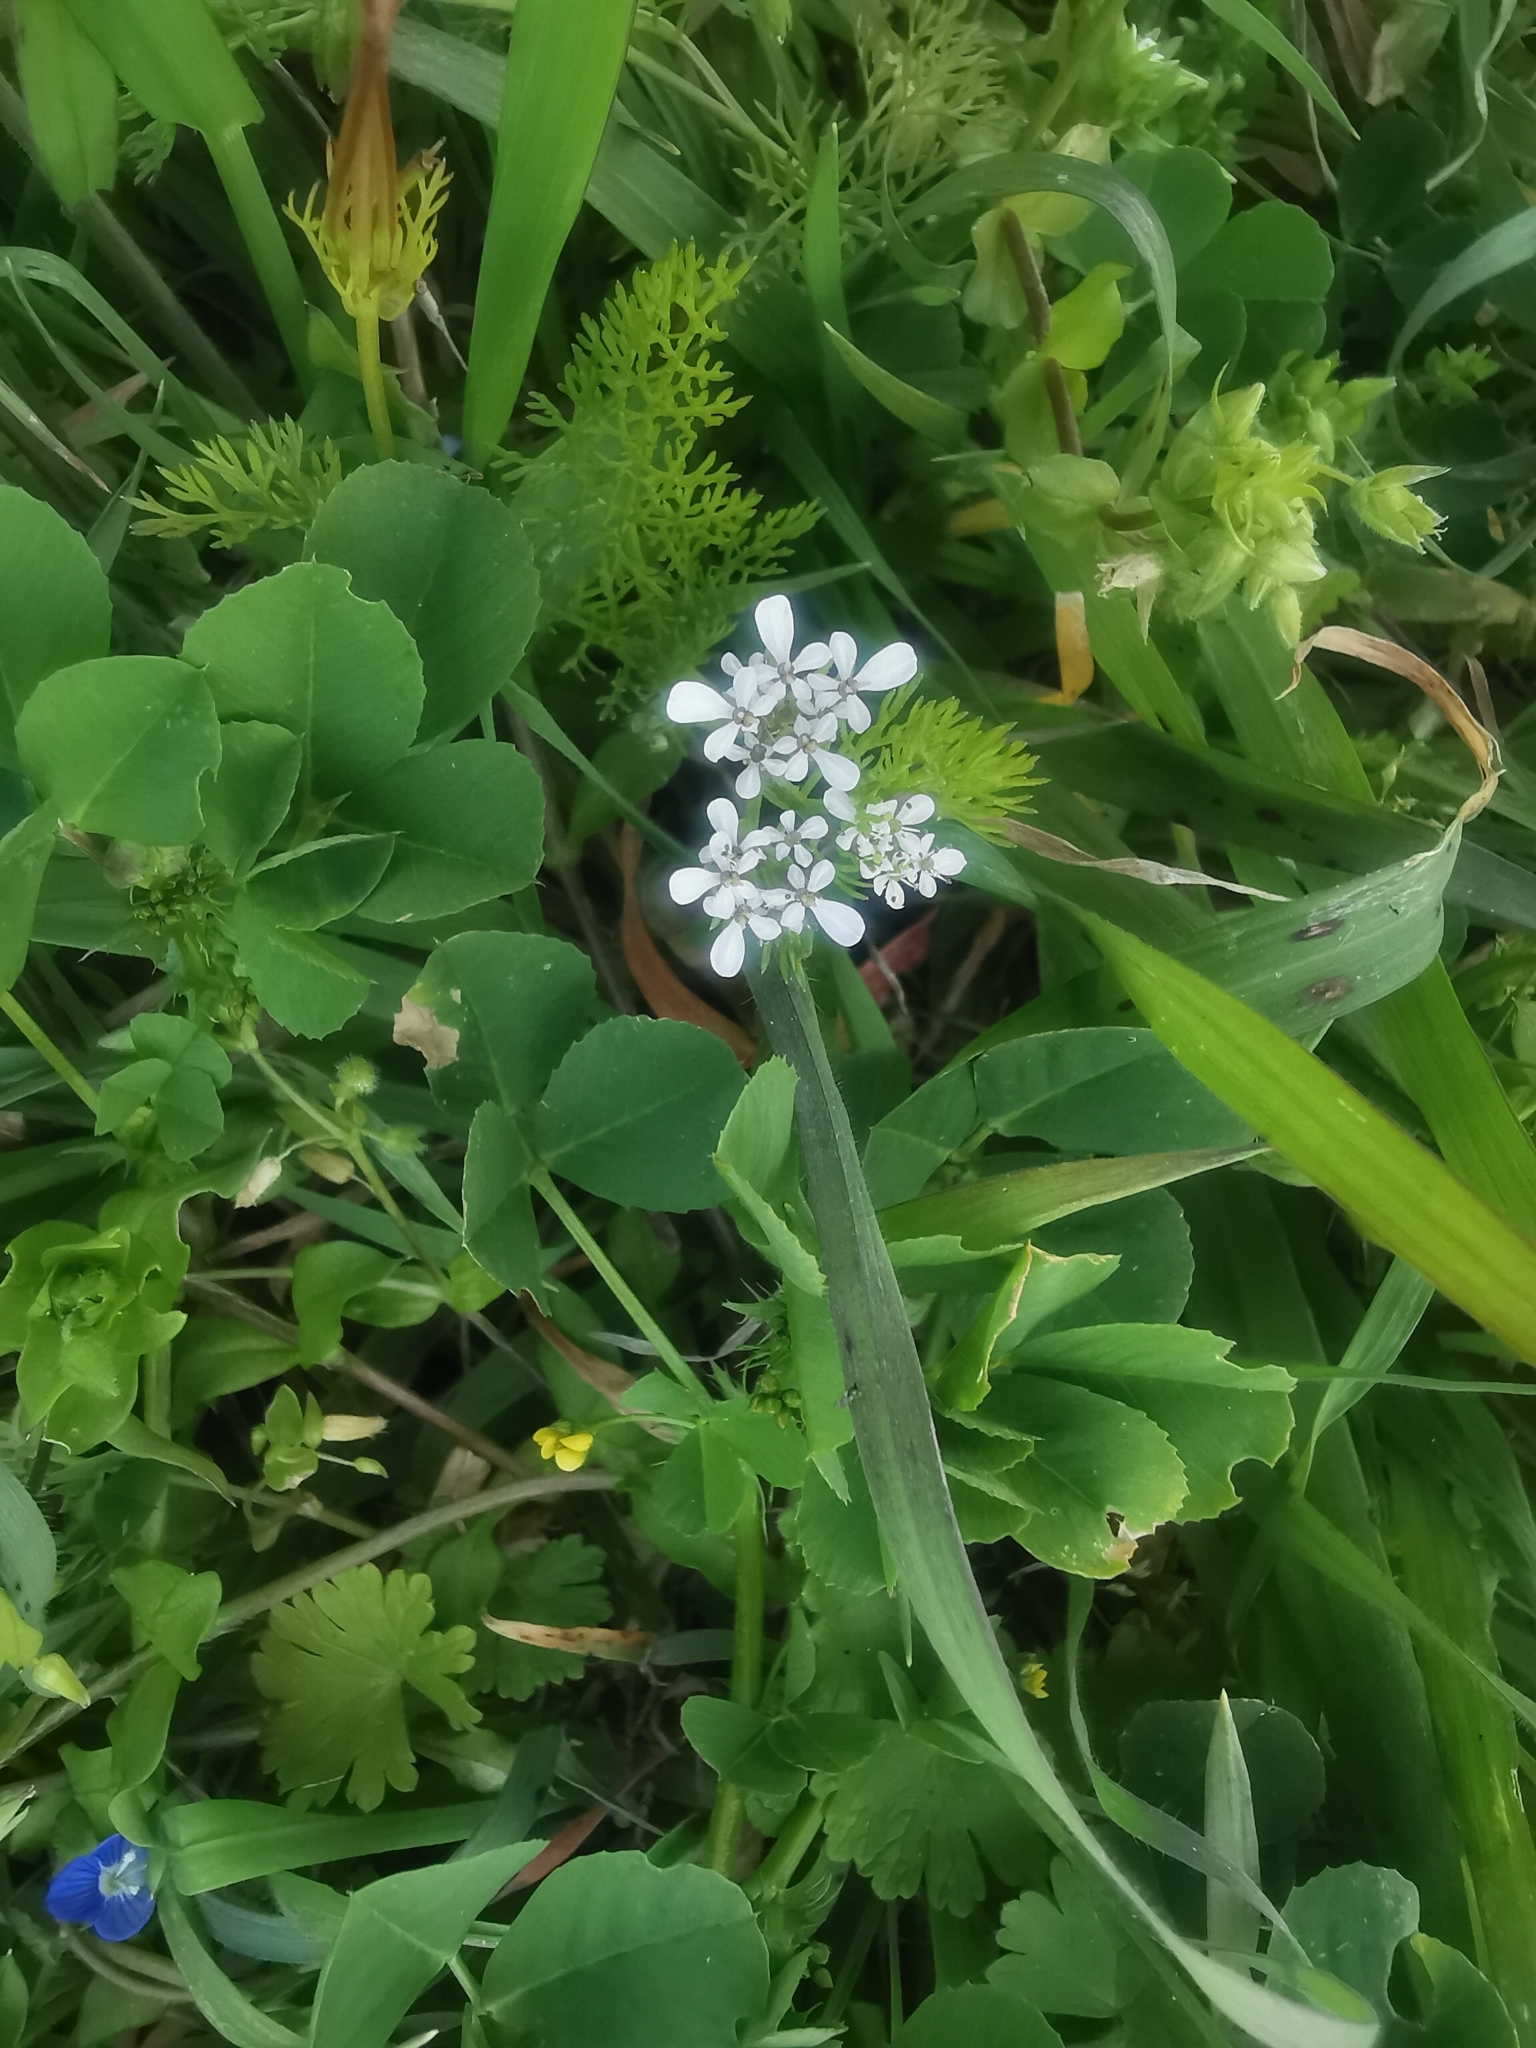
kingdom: Plantae
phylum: Tracheophyta
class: Magnoliopsida
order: Apiales
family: Apiaceae
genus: Scandix
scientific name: Scandix pecten-veneris
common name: Shepherd's-needle
